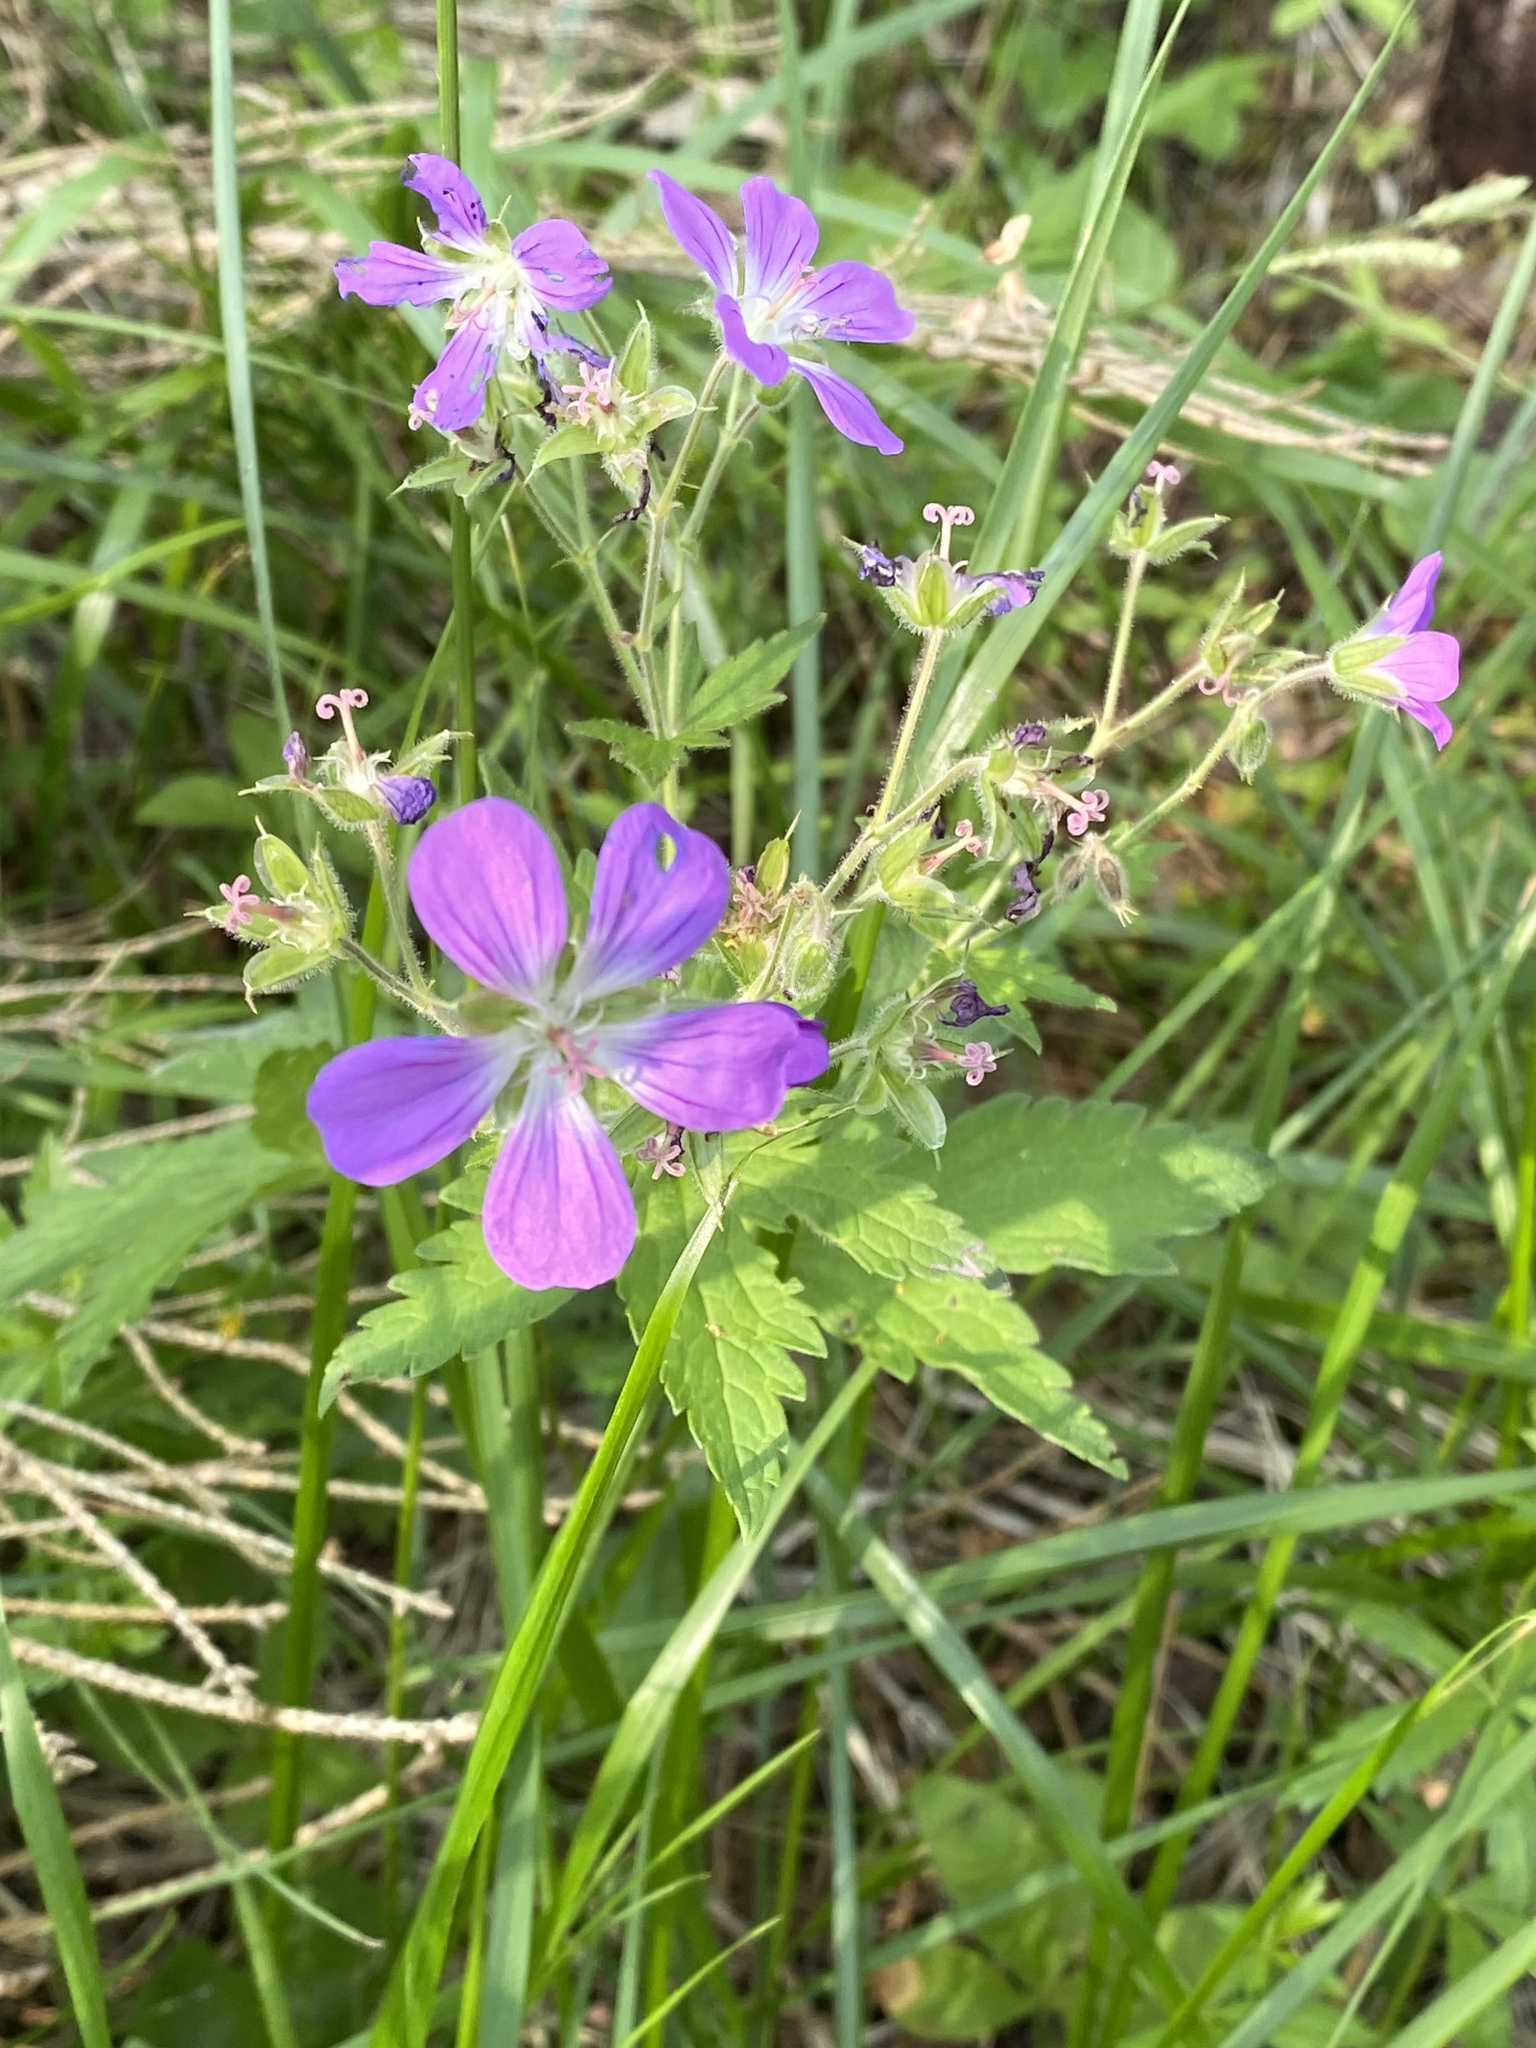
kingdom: Plantae
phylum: Tracheophyta
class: Magnoliopsida
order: Geraniales
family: Geraniaceae
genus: Geranium
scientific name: Geranium sylvaticum
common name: Wood crane's-bill
